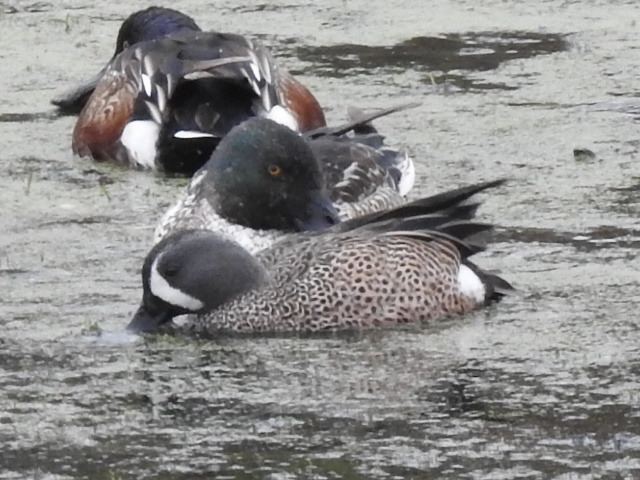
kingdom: Animalia
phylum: Chordata
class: Aves
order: Anseriformes
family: Anatidae
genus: Spatula
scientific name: Spatula discors
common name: Blue-winged teal
